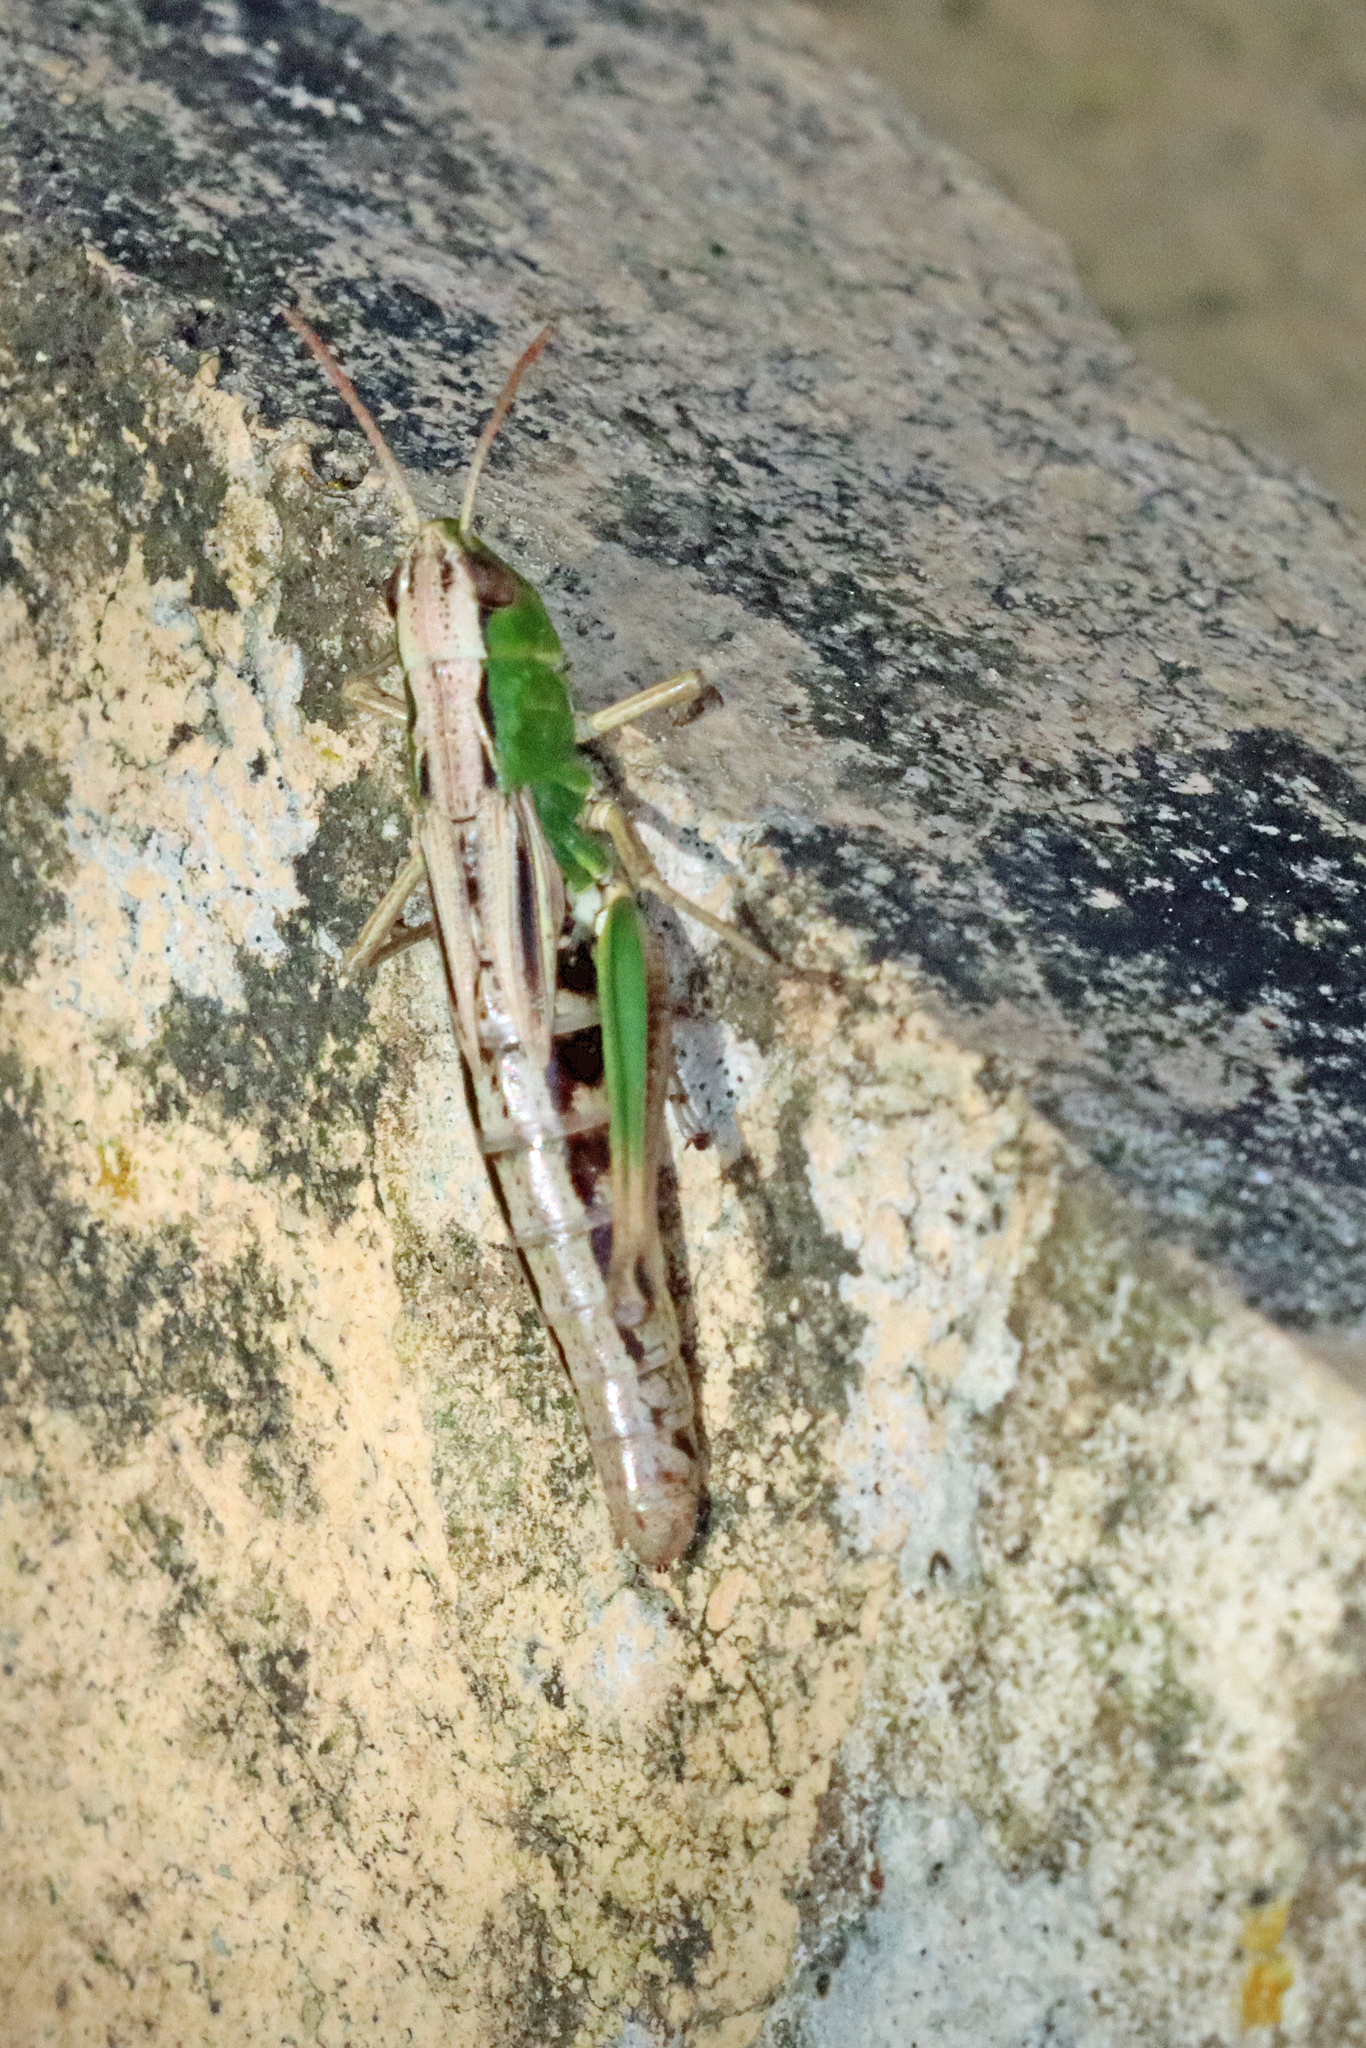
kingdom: Animalia
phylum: Arthropoda
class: Insecta
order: Orthoptera
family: Acrididae
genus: Pseudochorthippus
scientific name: Pseudochorthippus parallelus
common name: Meadow grasshopper
